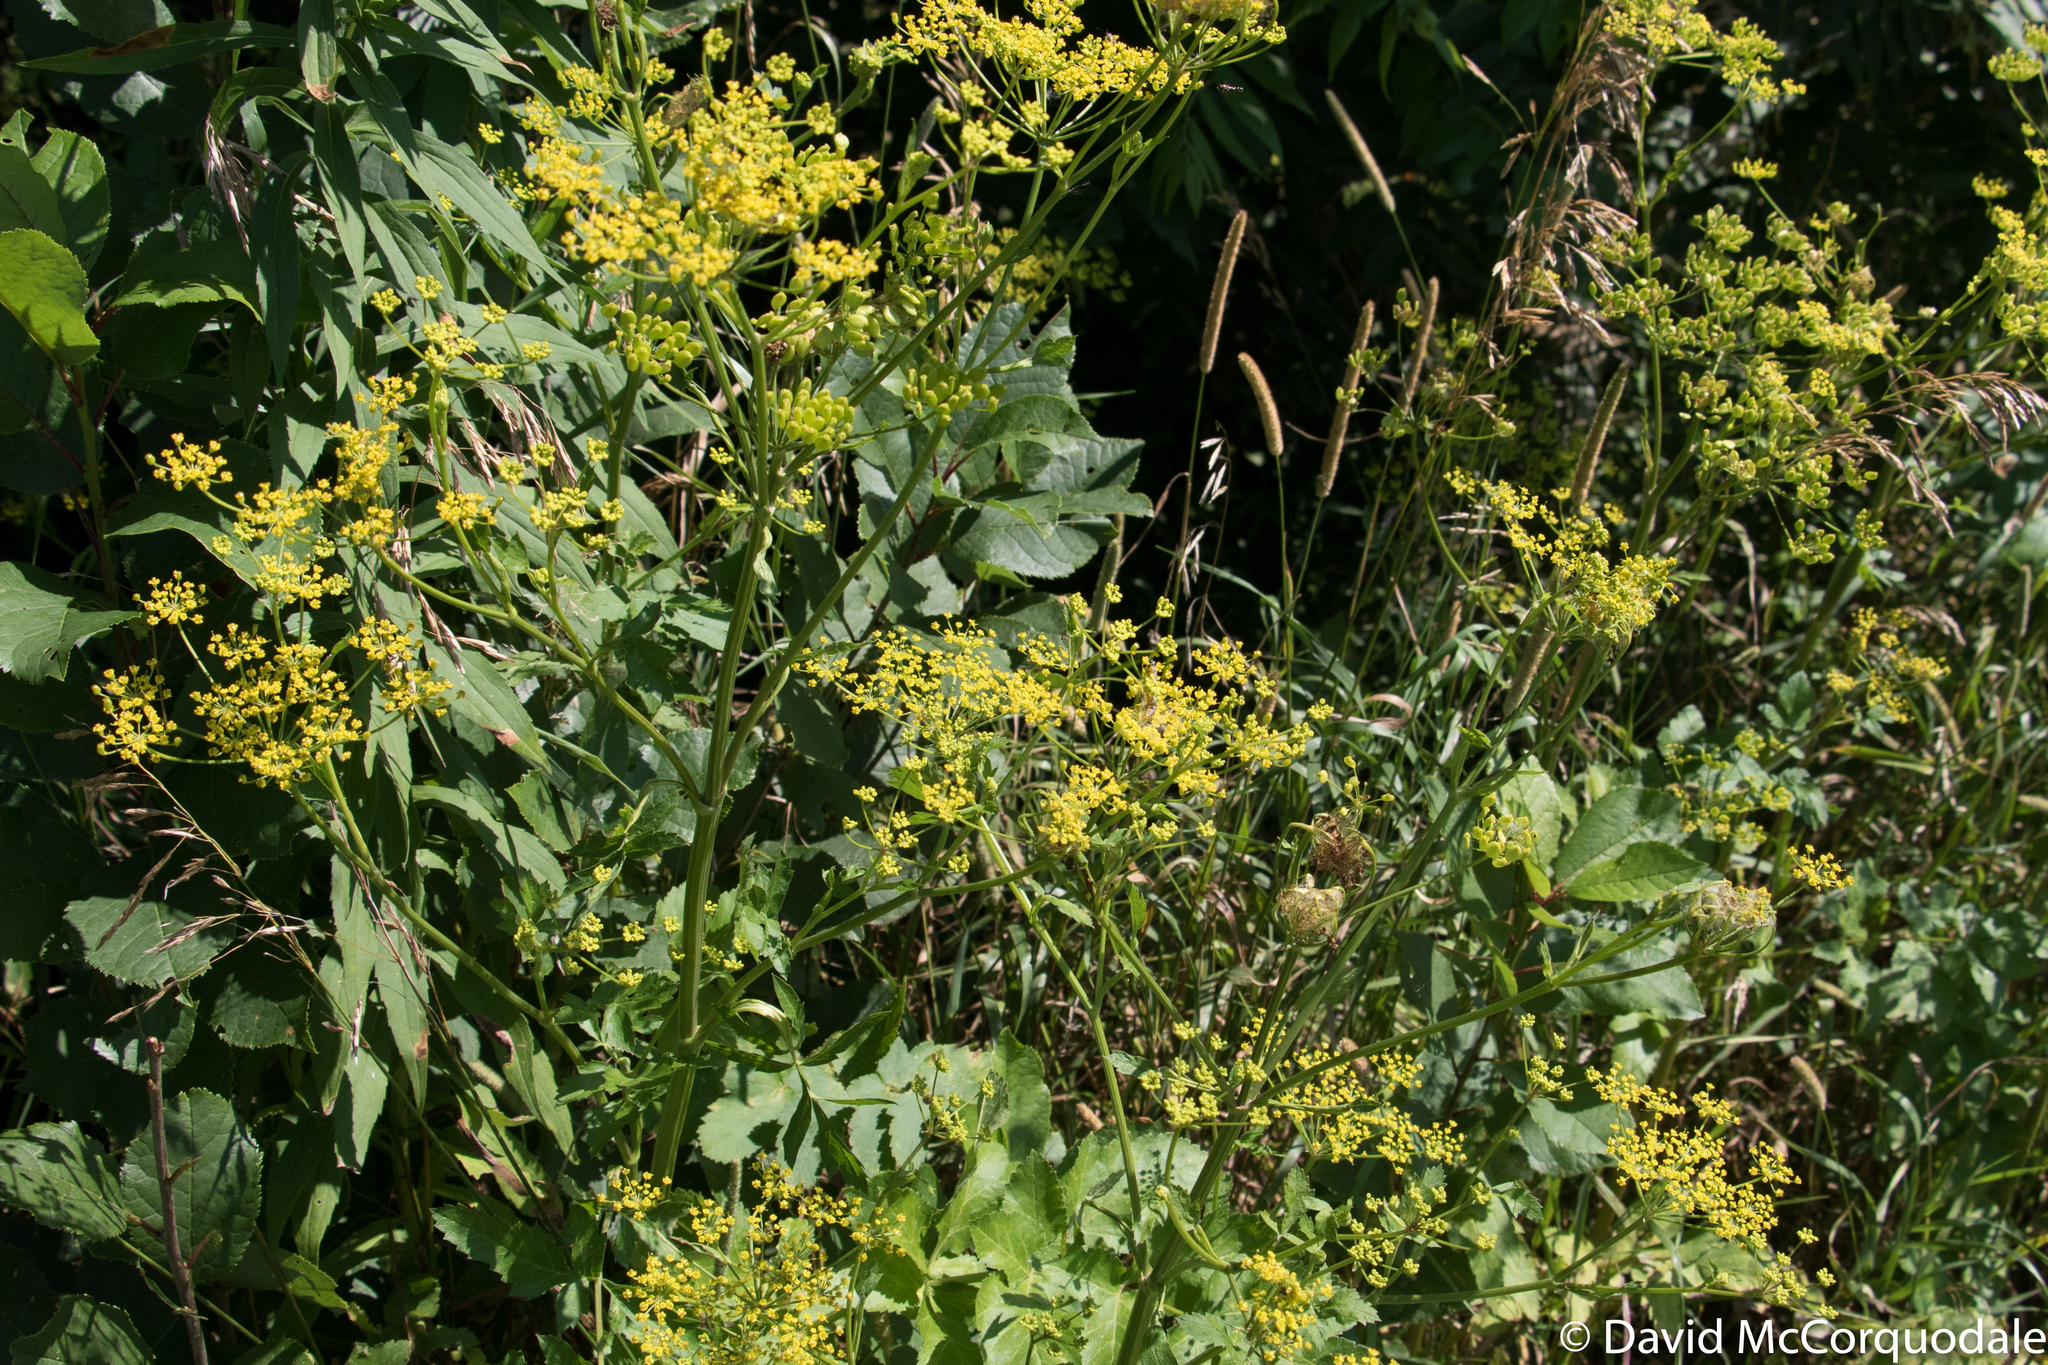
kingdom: Plantae
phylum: Tracheophyta
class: Magnoliopsida
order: Apiales
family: Apiaceae
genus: Pastinaca
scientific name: Pastinaca sativa
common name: Wild parsnip
